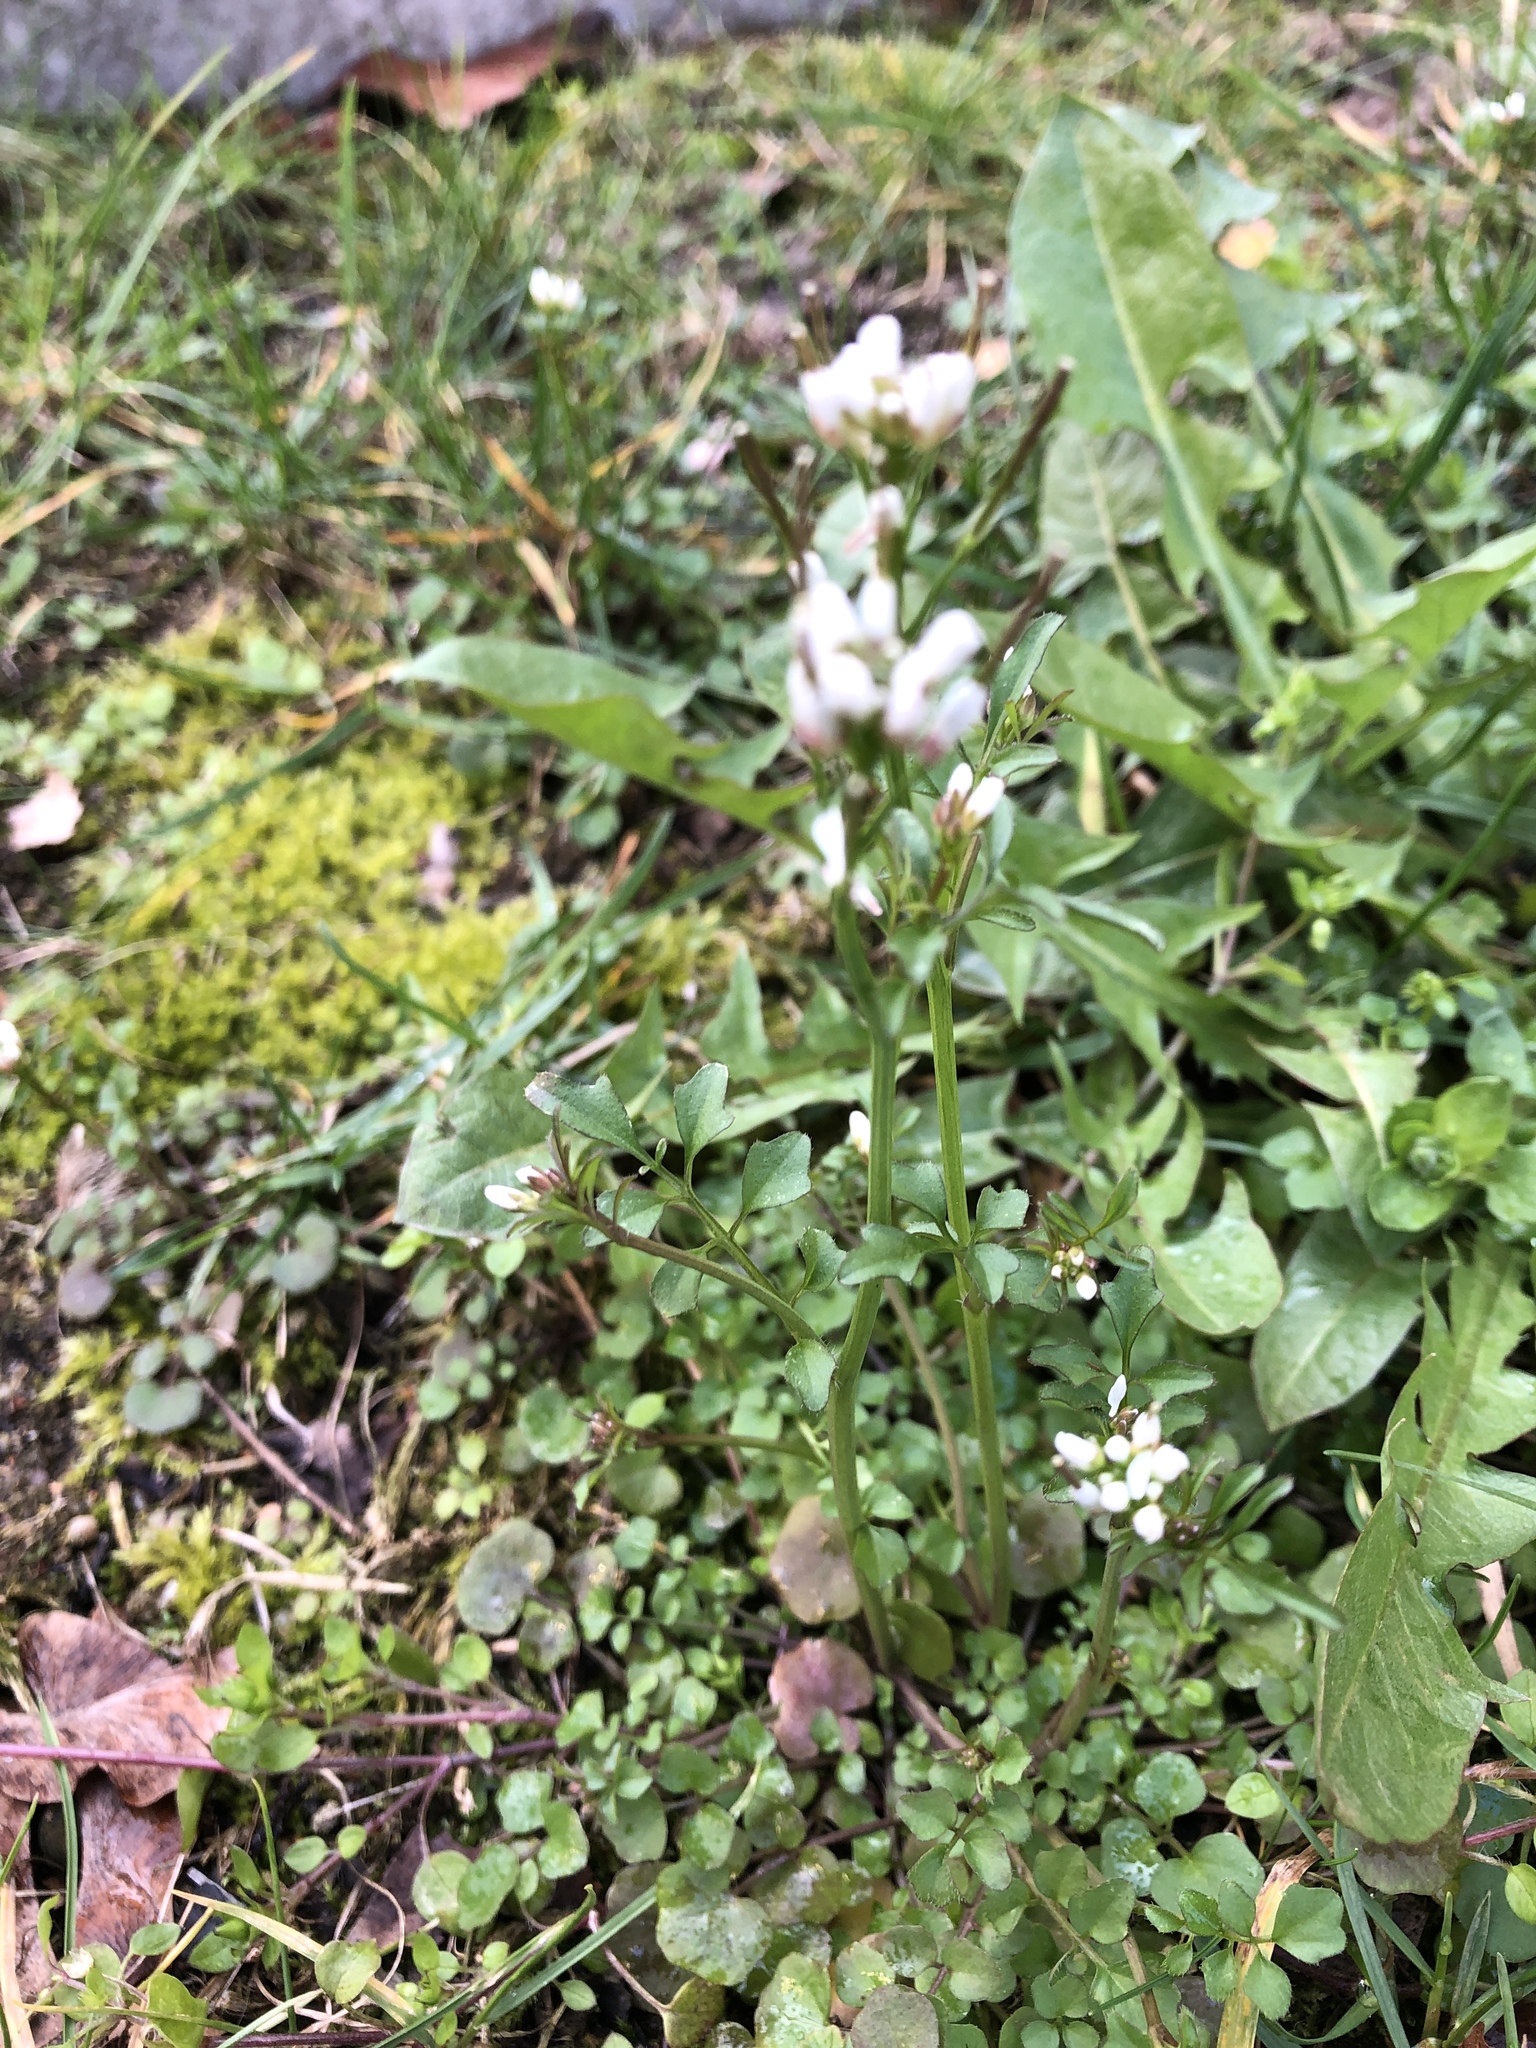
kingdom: Plantae
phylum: Tracheophyta
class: Magnoliopsida
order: Brassicales
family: Brassicaceae
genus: Cardamine
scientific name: Cardamine hirsuta
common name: Hairy bittercress
